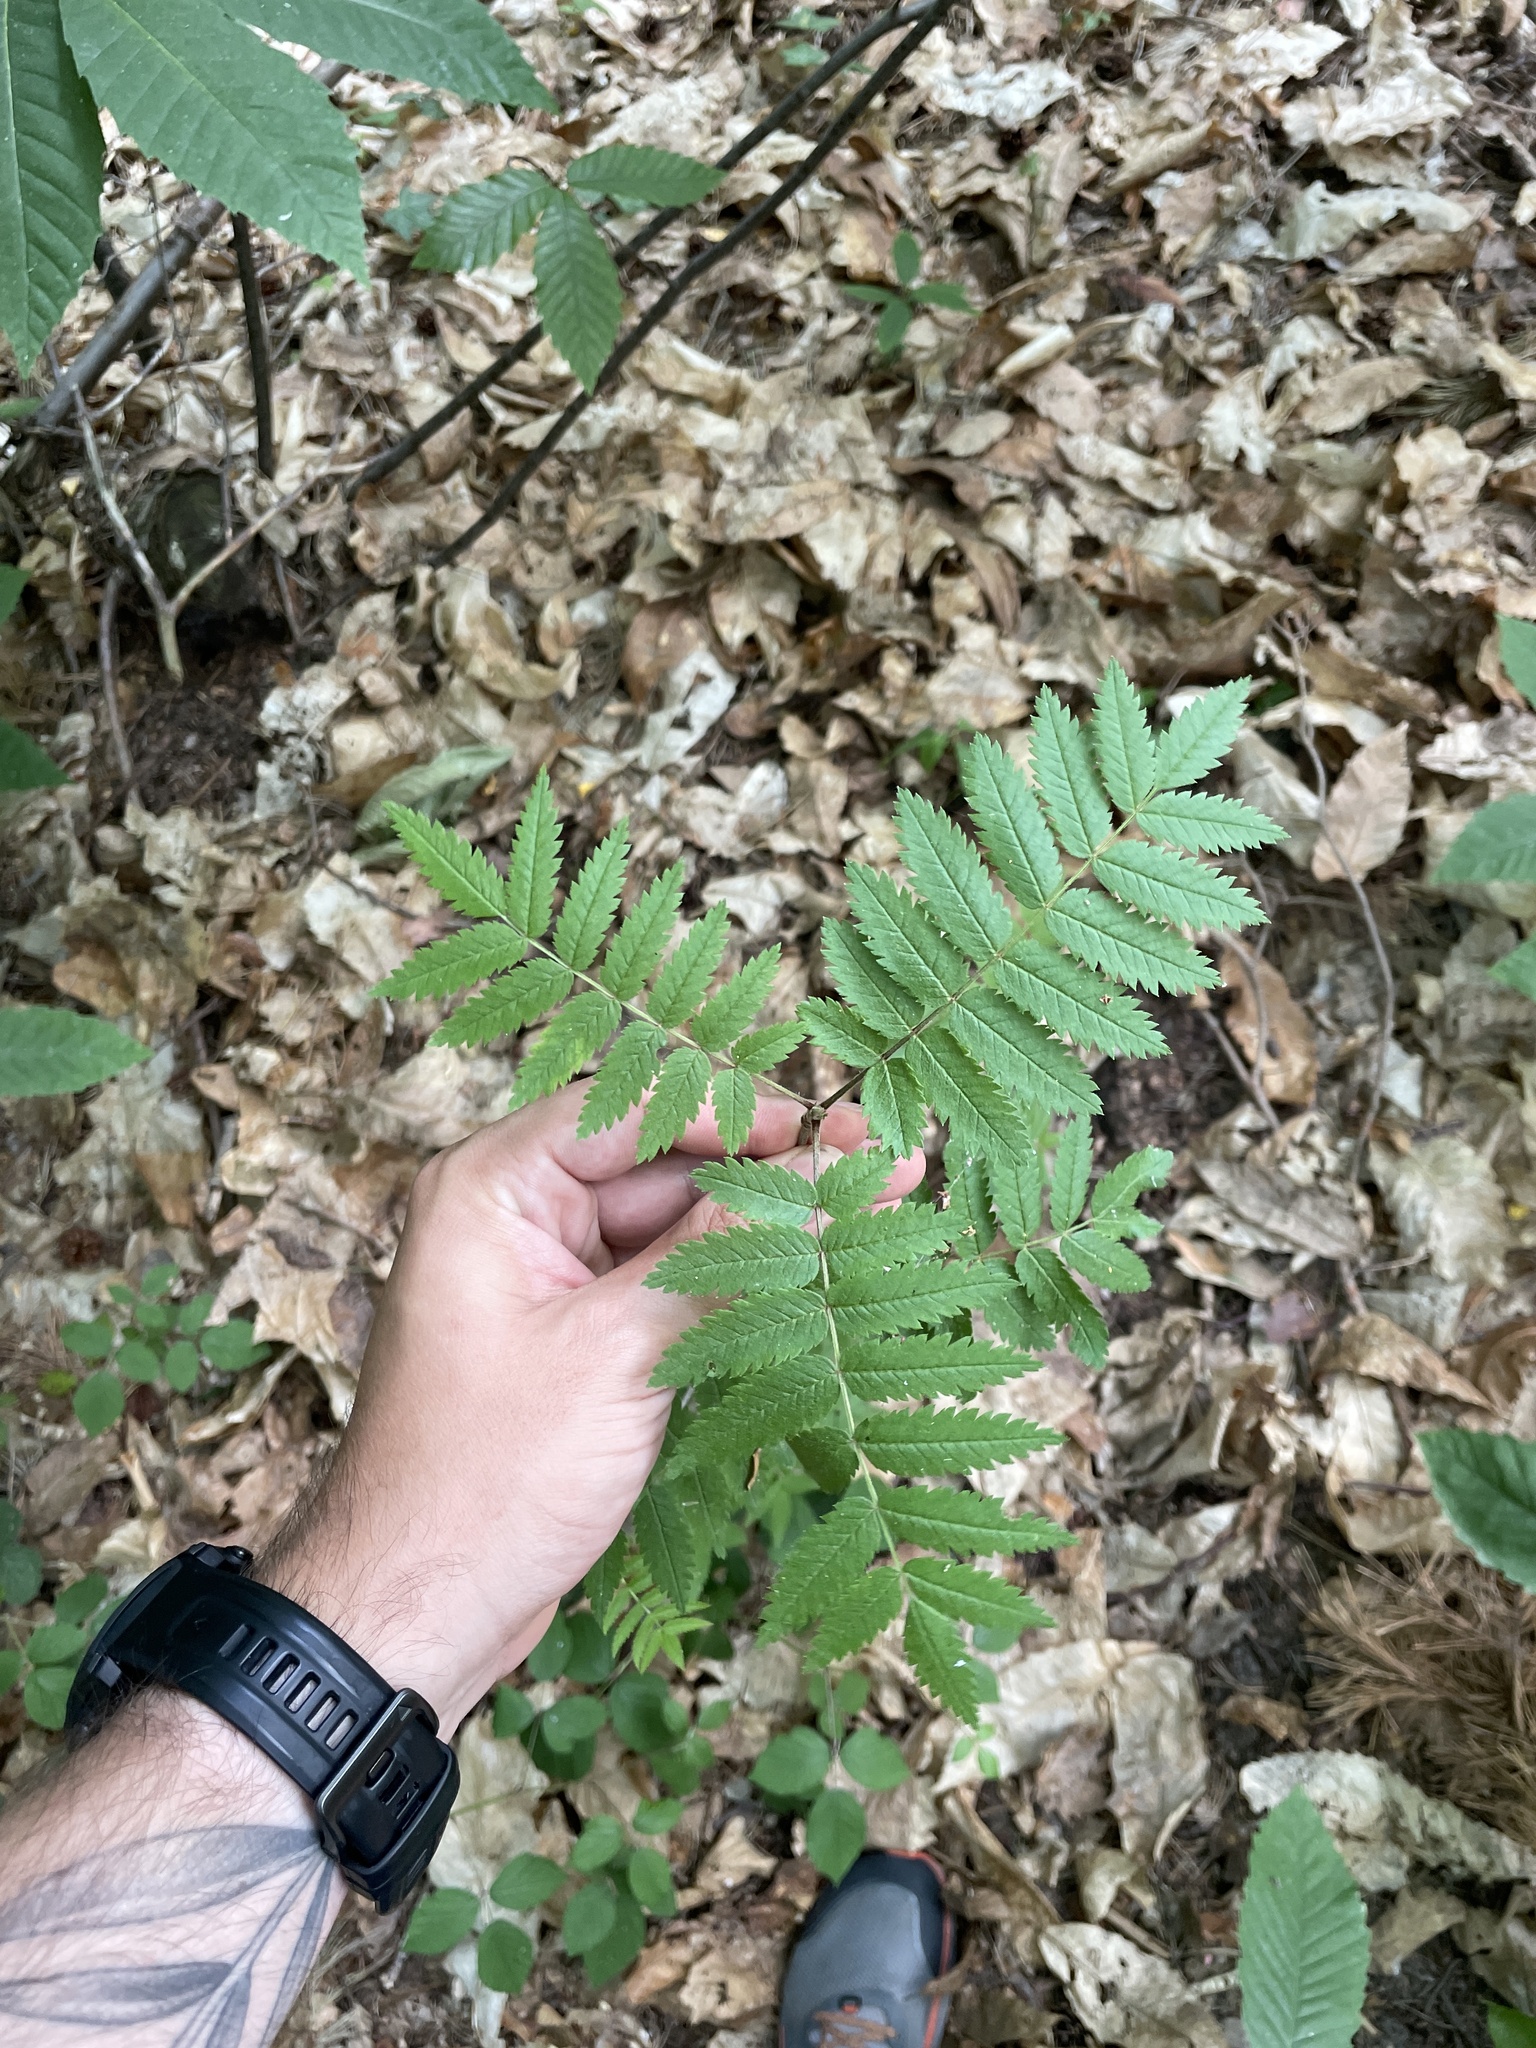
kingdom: Plantae
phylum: Tracheophyta
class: Magnoliopsida
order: Rosales
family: Rosaceae
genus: Sorbus
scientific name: Sorbus aucuparia
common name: Rowan
